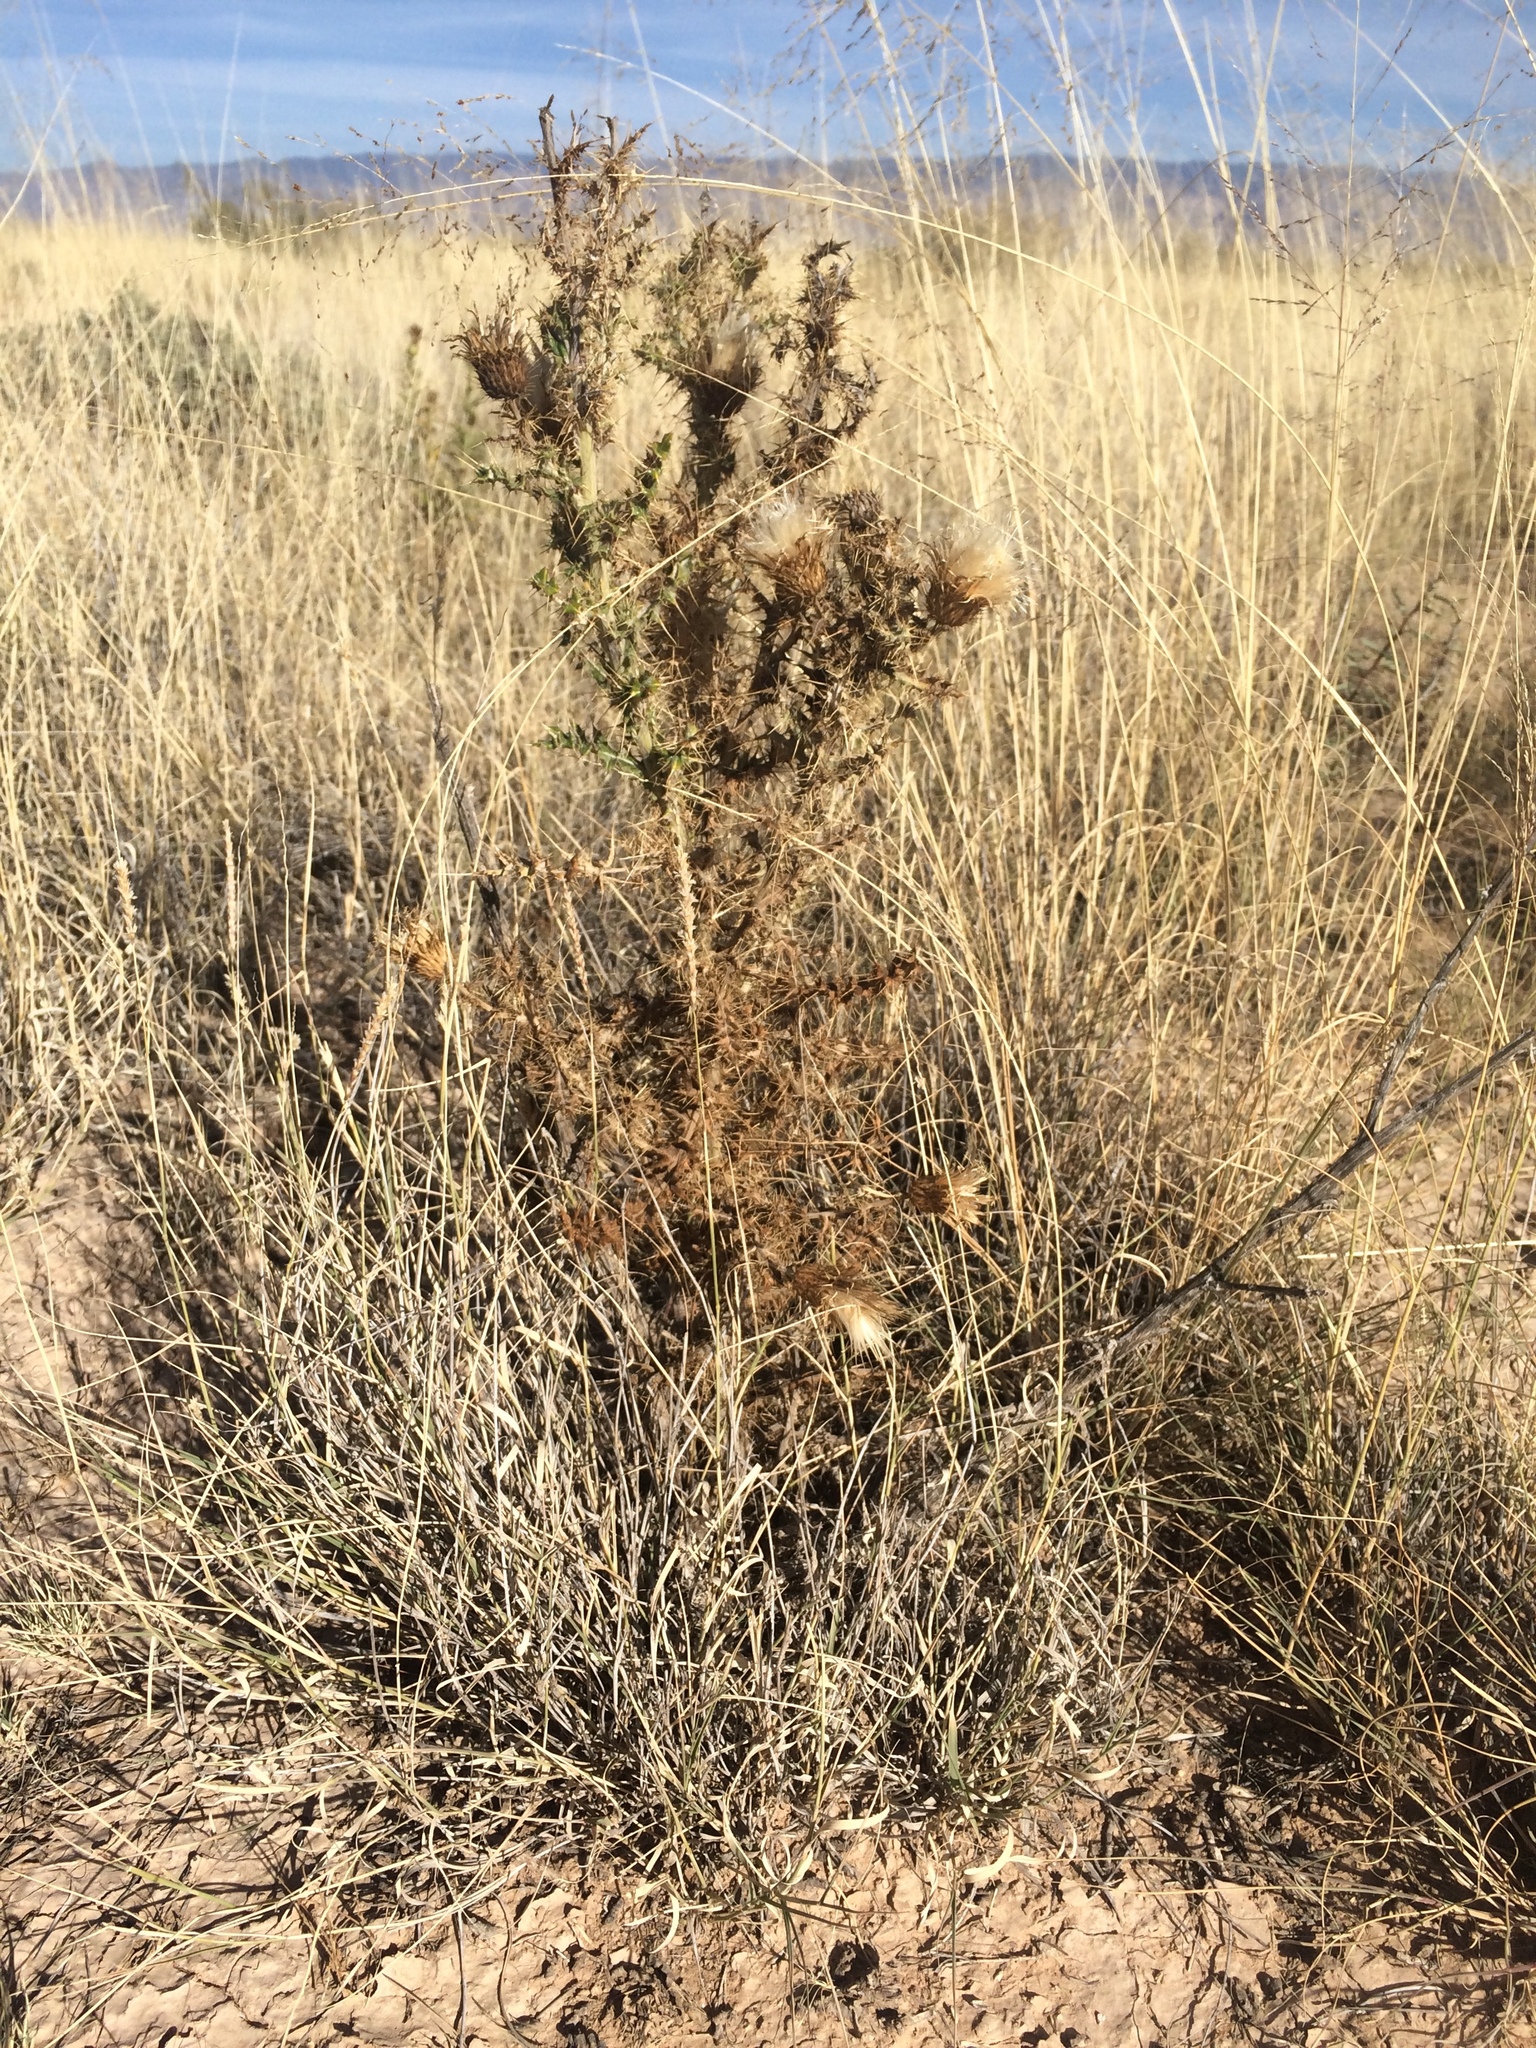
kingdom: Plantae
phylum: Tracheophyta
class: Magnoliopsida
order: Asterales
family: Asteraceae
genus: Cirsium
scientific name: Cirsium ochrocentrum
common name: Yellow-spine thistle
